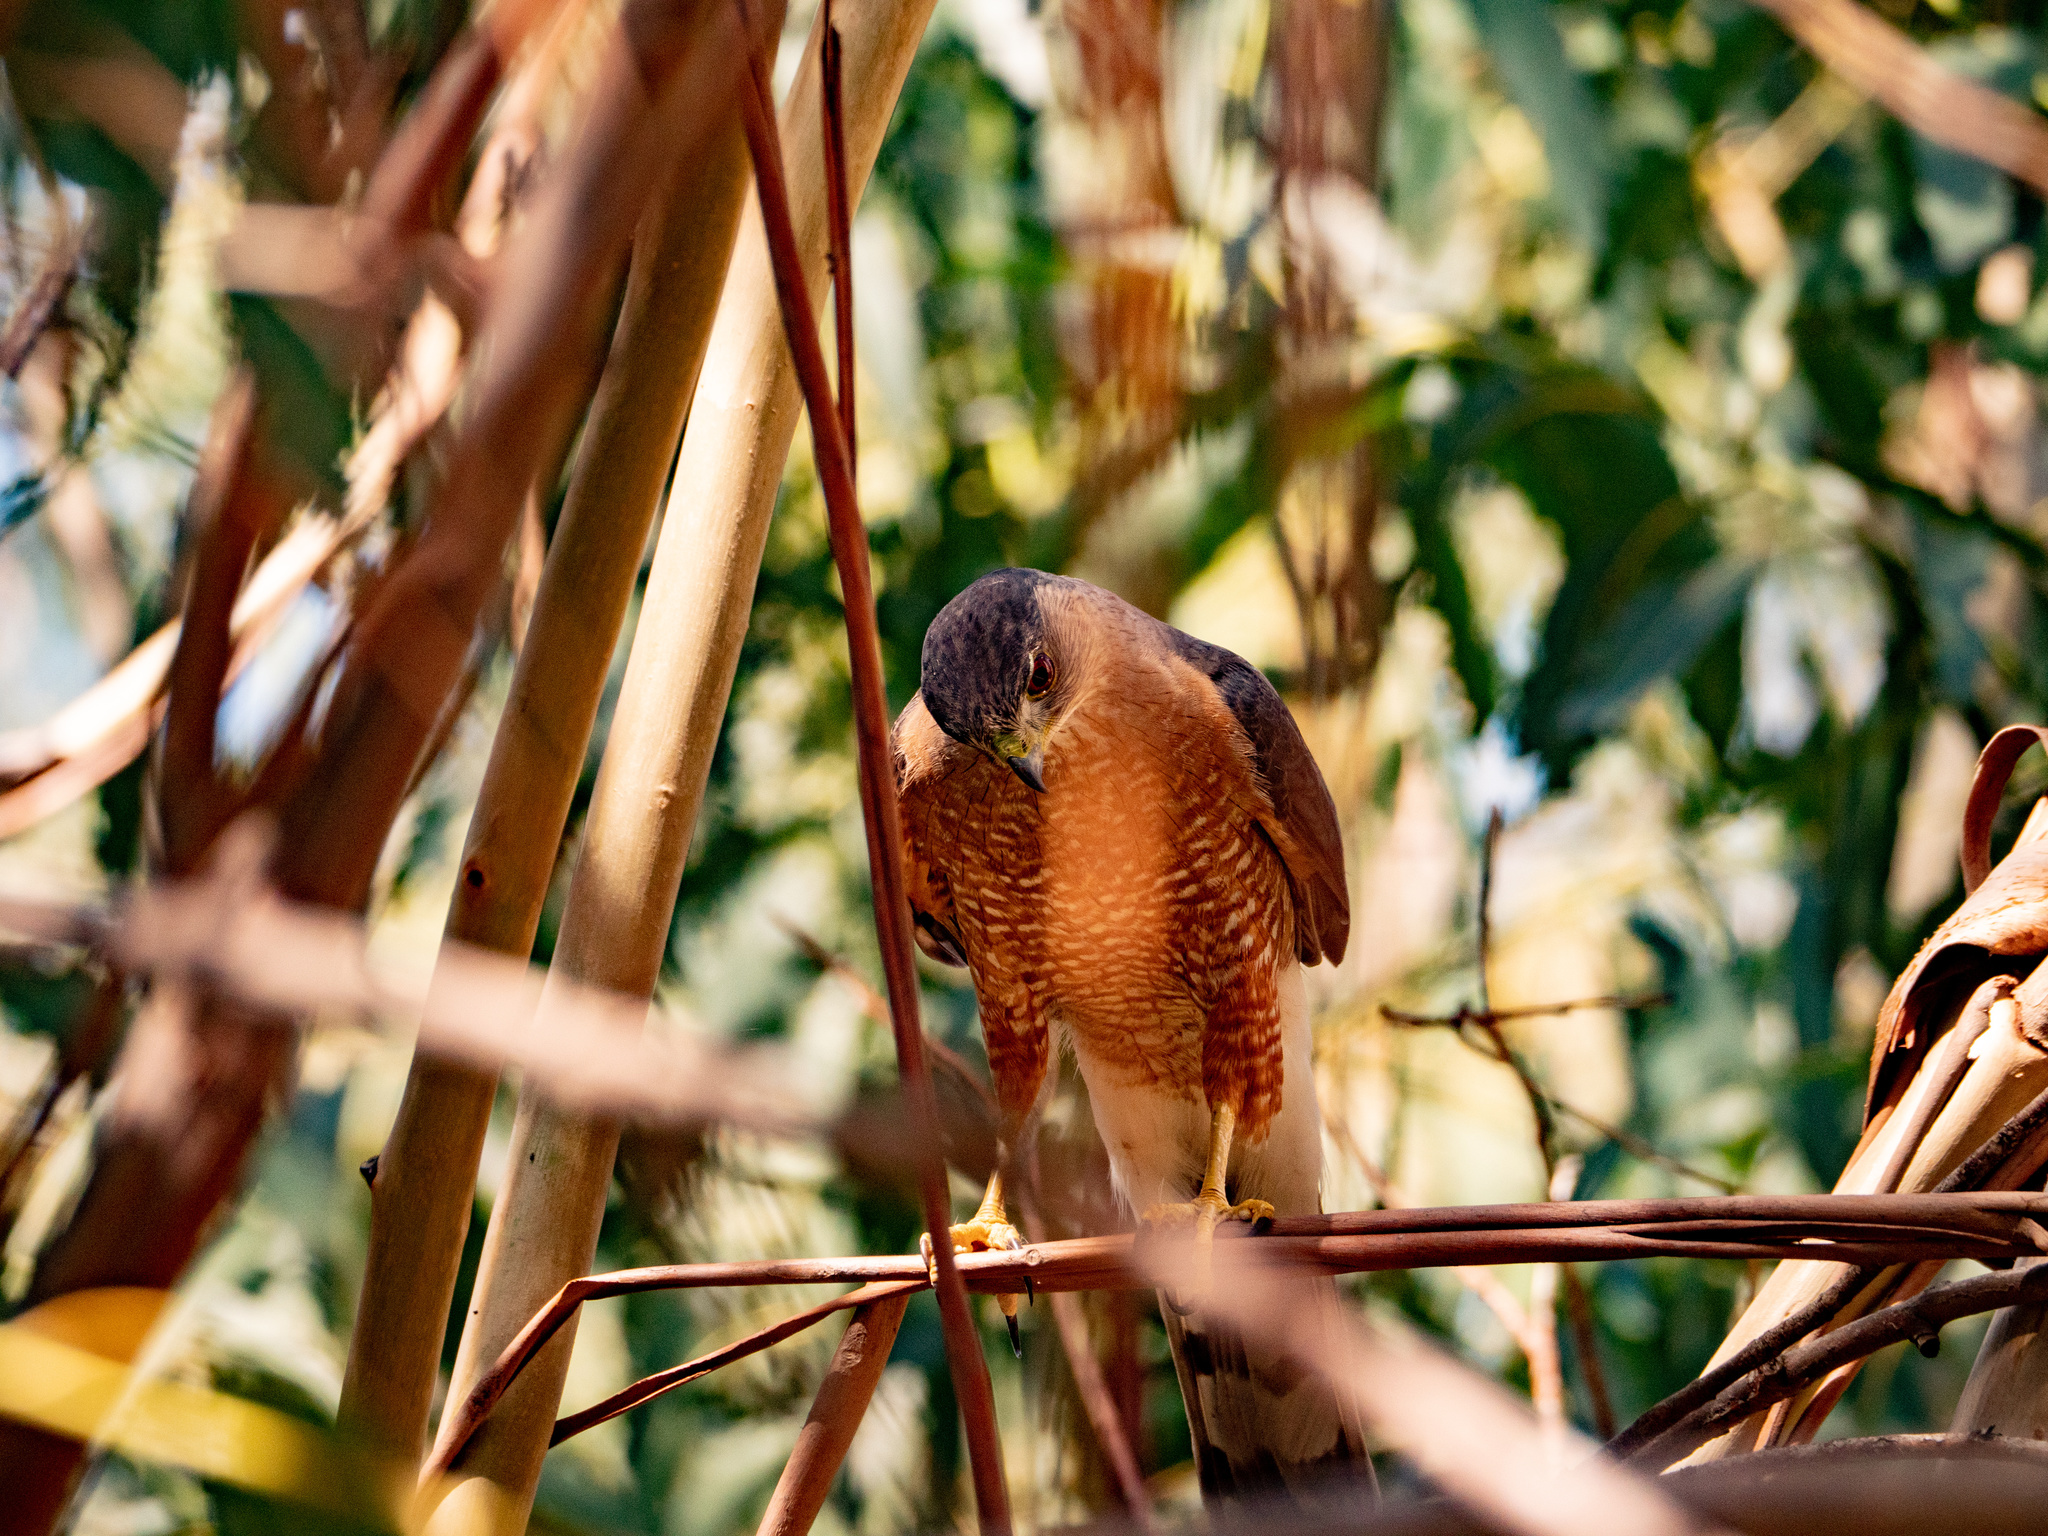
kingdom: Animalia
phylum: Chordata
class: Aves
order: Accipitriformes
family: Accipitridae
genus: Accipiter
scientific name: Accipiter cooperii
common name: Cooper's hawk
